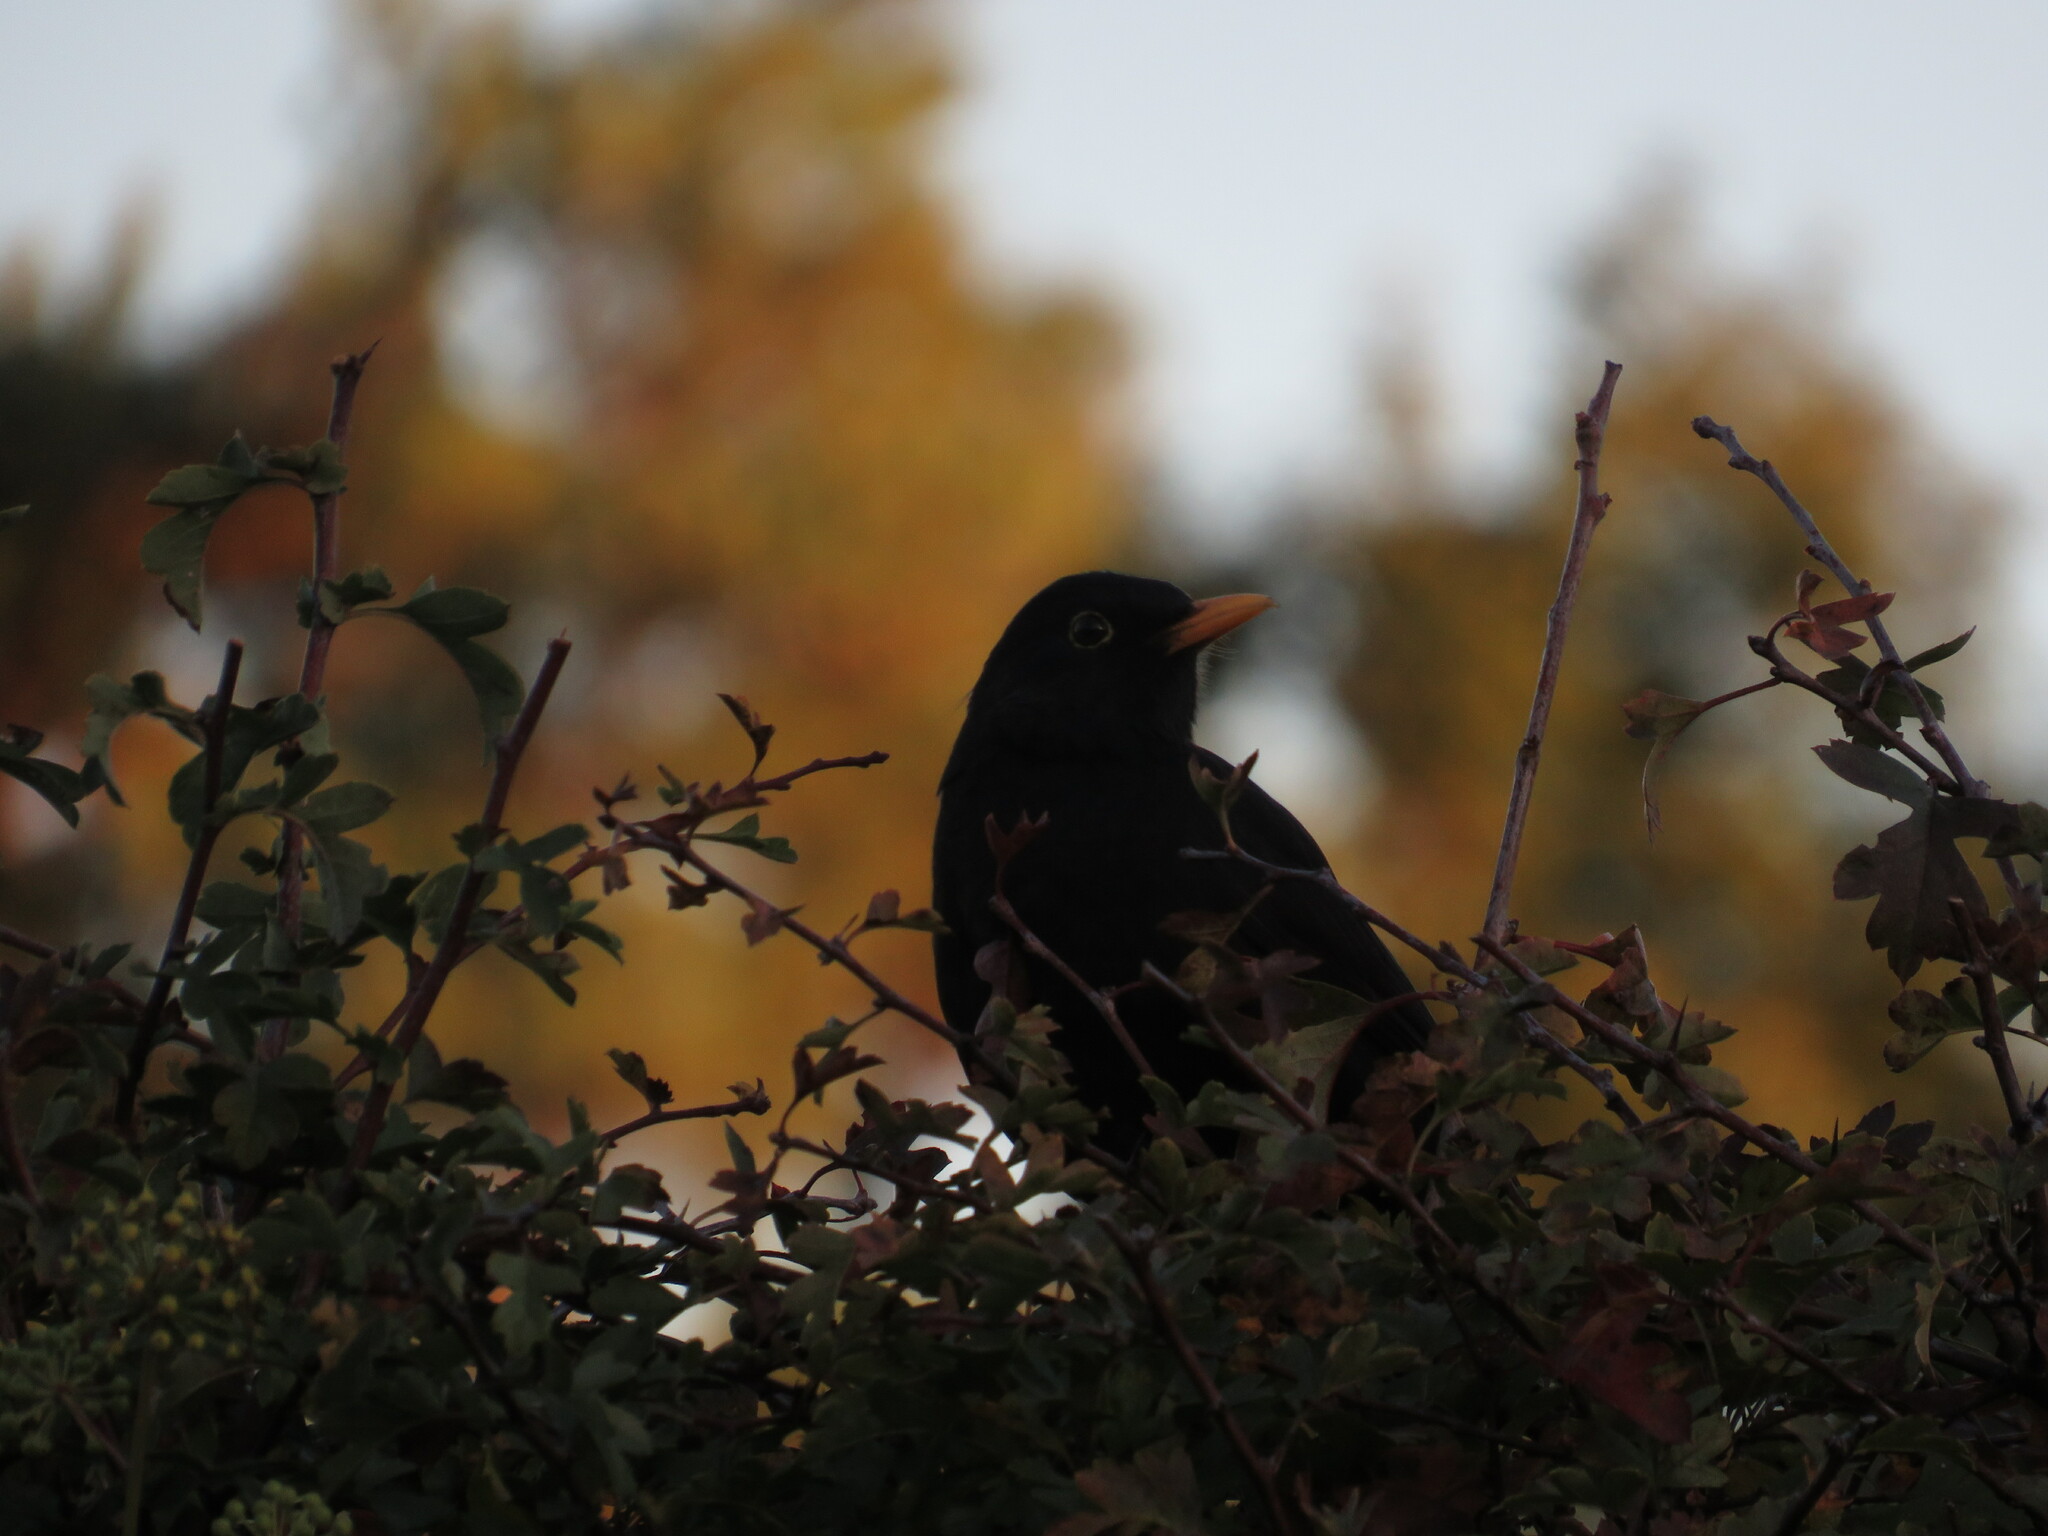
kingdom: Animalia
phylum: Chordata
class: Aves
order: Passeriformes
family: Turdidae
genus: Turdus
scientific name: Turdus merula
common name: Common blackbird
